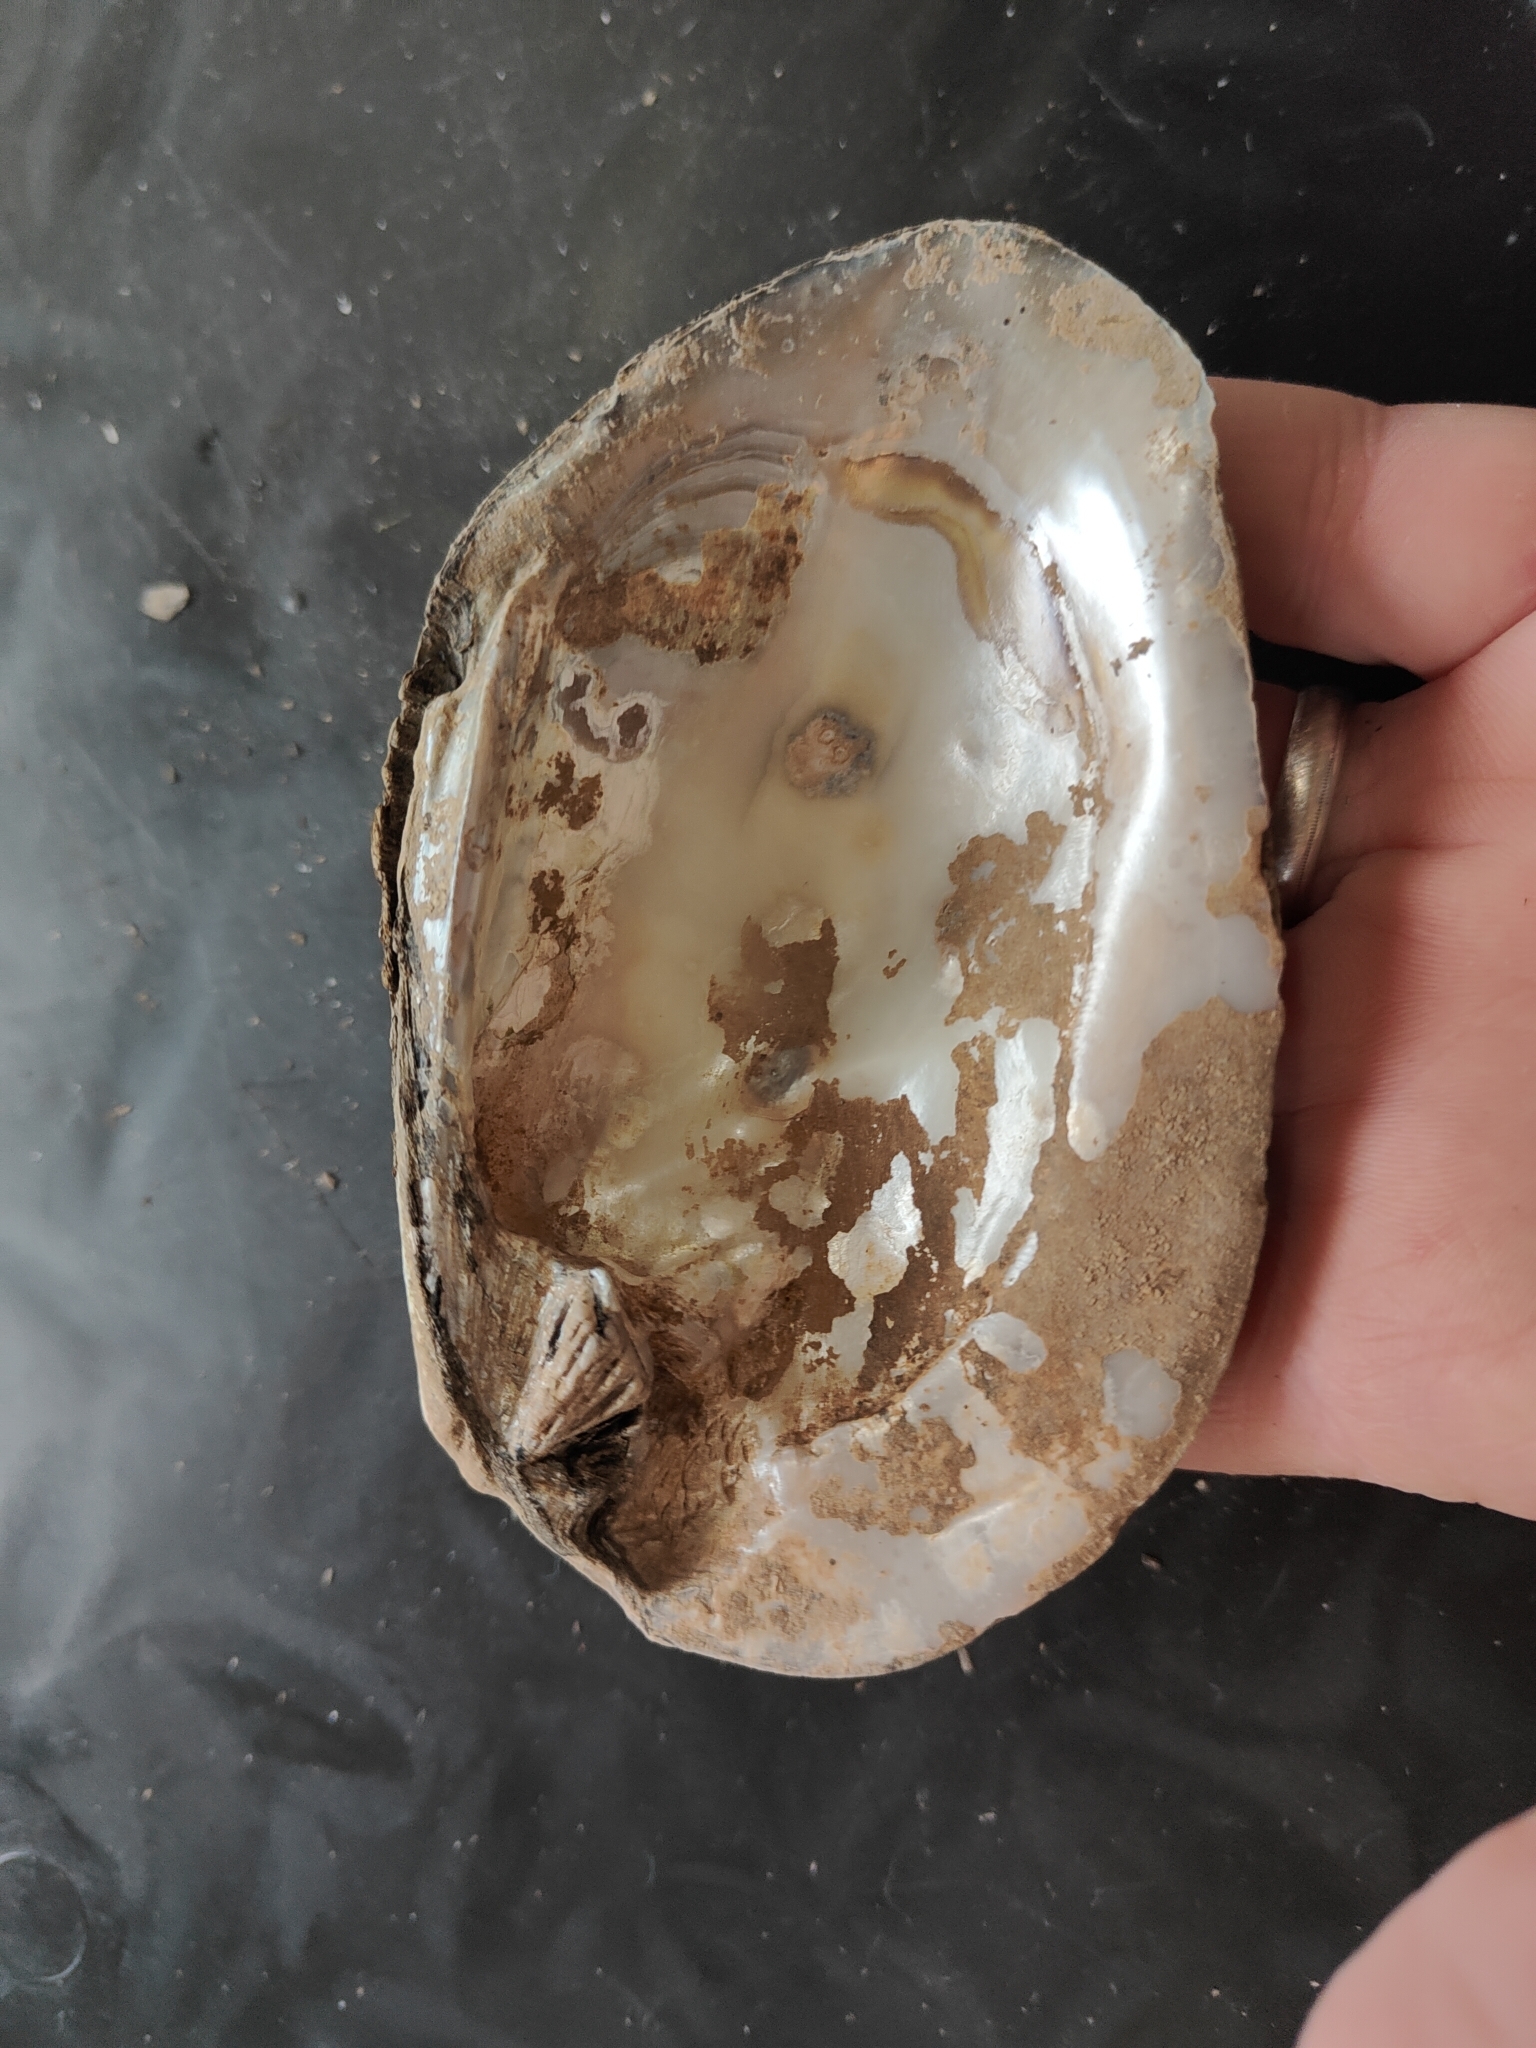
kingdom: Animalia
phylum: Mollusca
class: Bivalvia
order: Unionida
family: Unionidae
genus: Amblema
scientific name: Amblema plicata
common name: Threeridge
